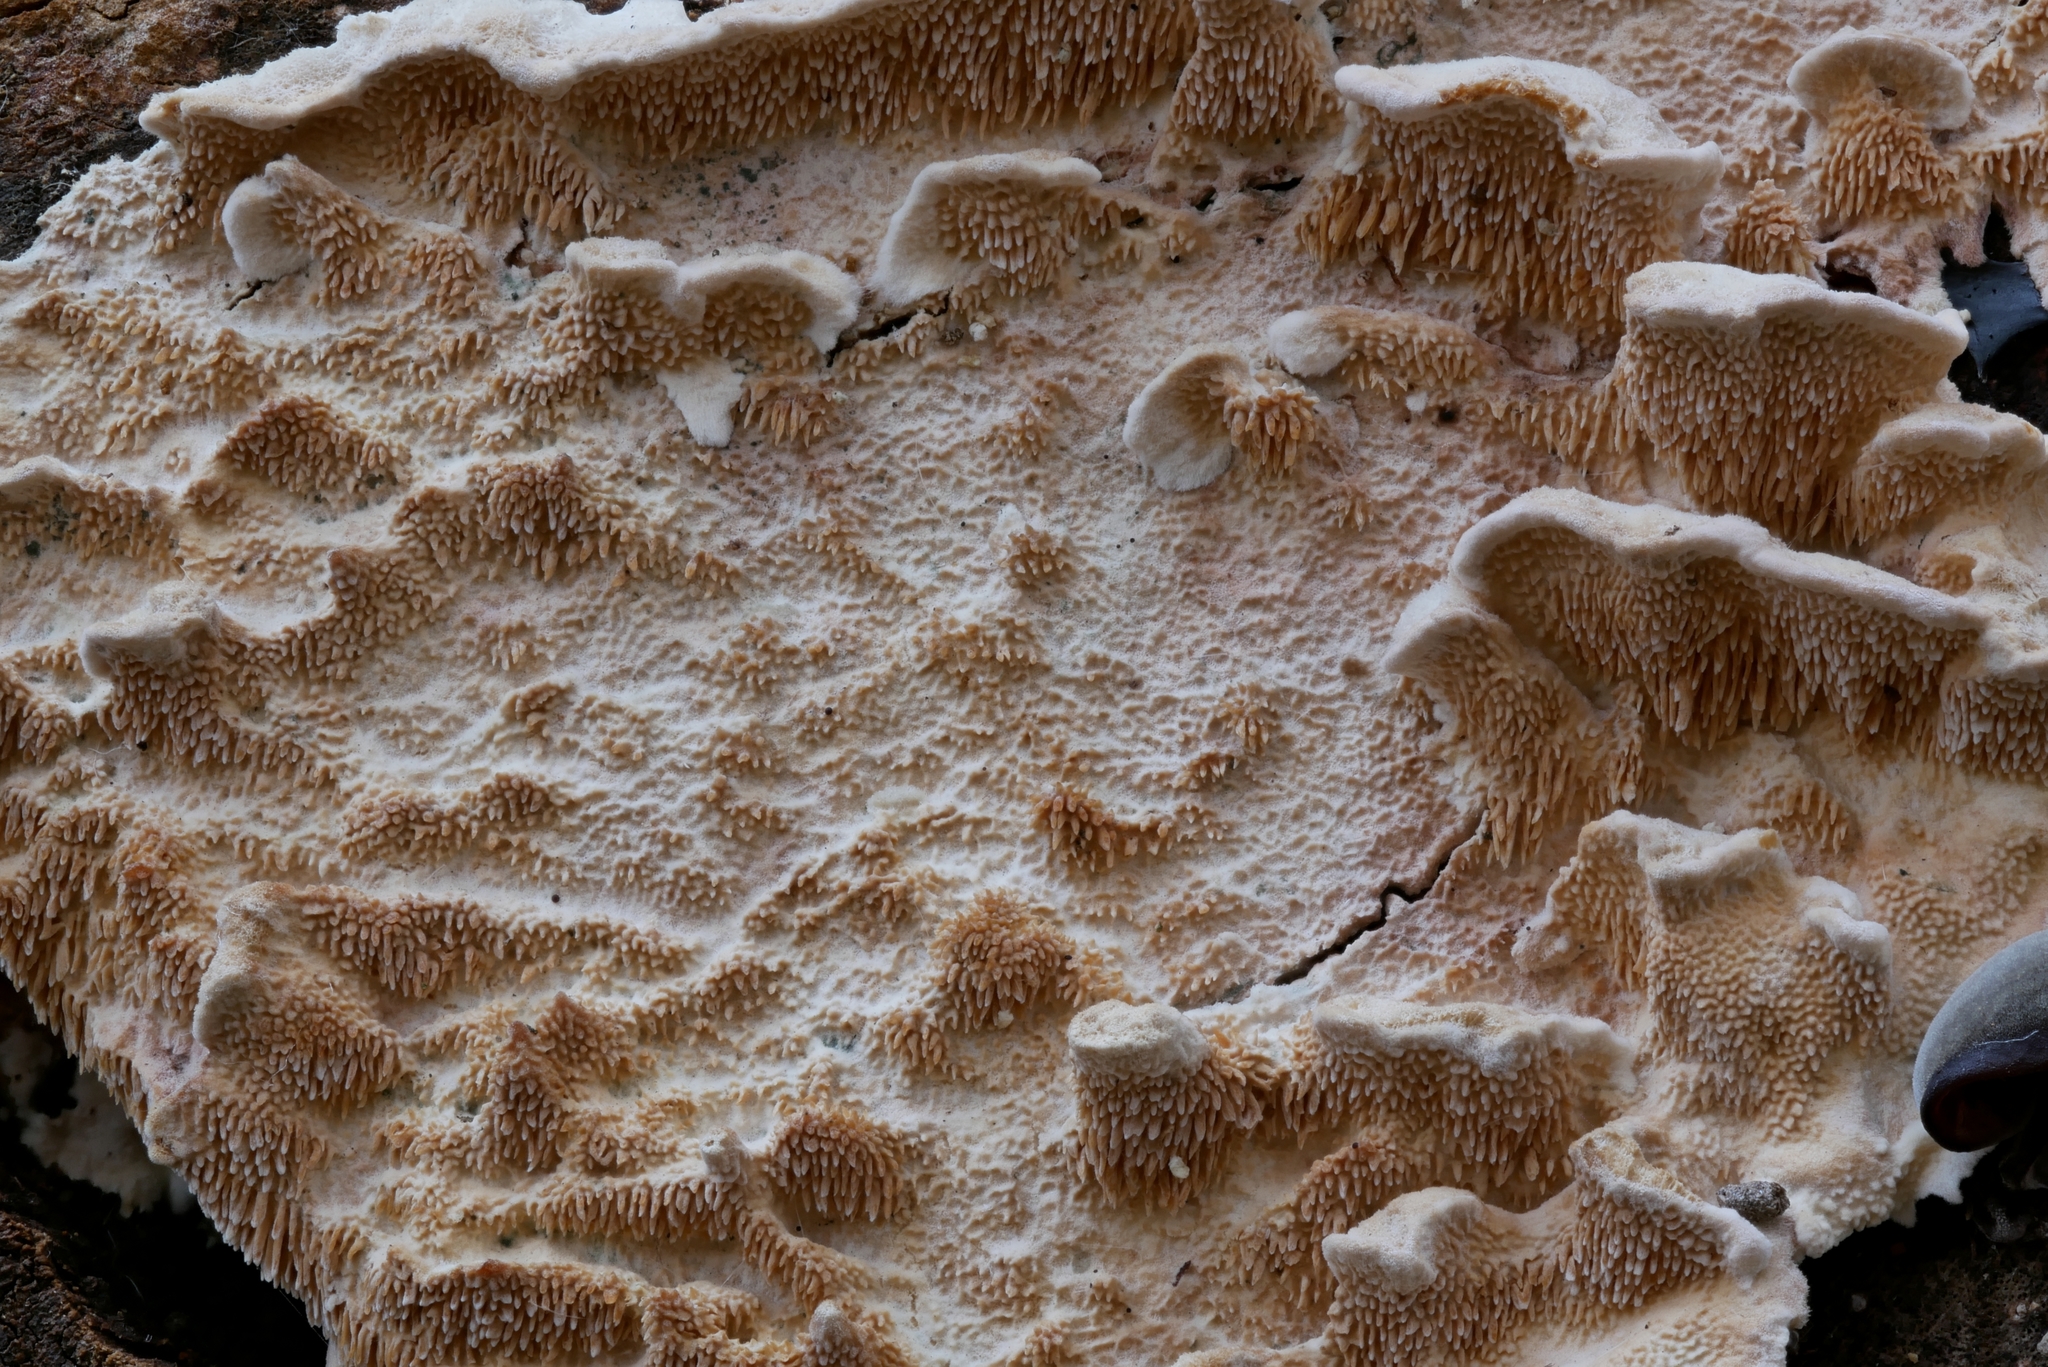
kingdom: Fungi
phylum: Basidiomycota
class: Agaricomycetes
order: Polyporales
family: Steccherinaceae
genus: Steccherinum
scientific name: Steccherinum bourdotii
